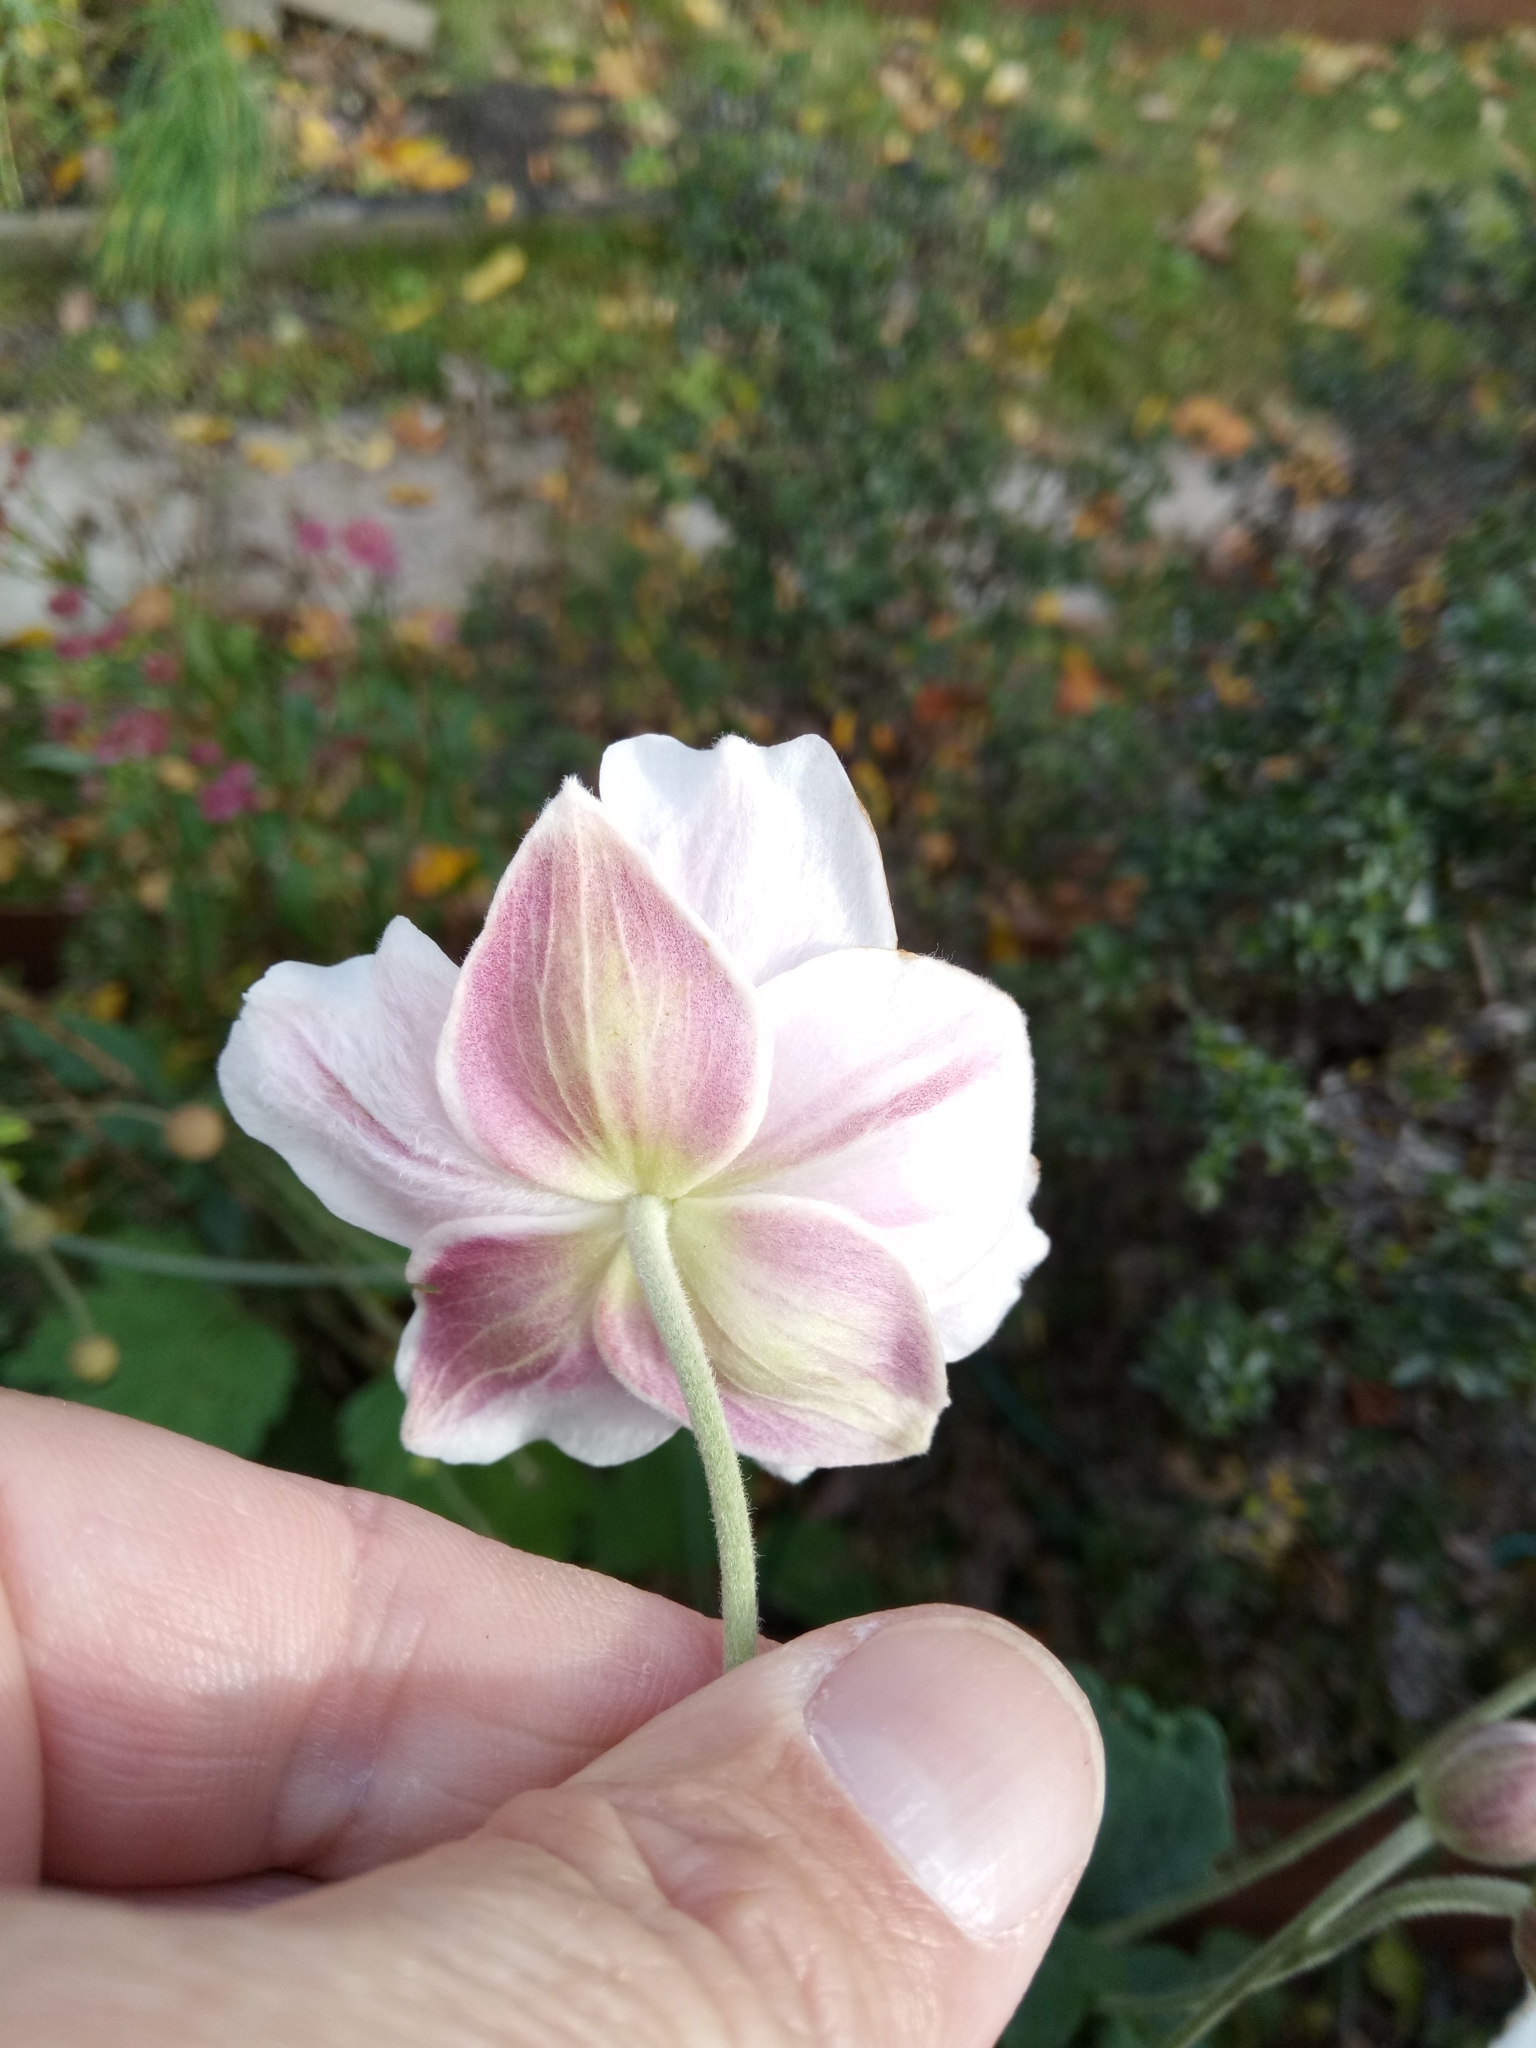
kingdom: Plantae
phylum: Tracheophyta
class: Magnoliopsida
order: Ranunculales
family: Ranunculaceae
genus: Eriocapitella
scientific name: Eriocapitella hupehensis
